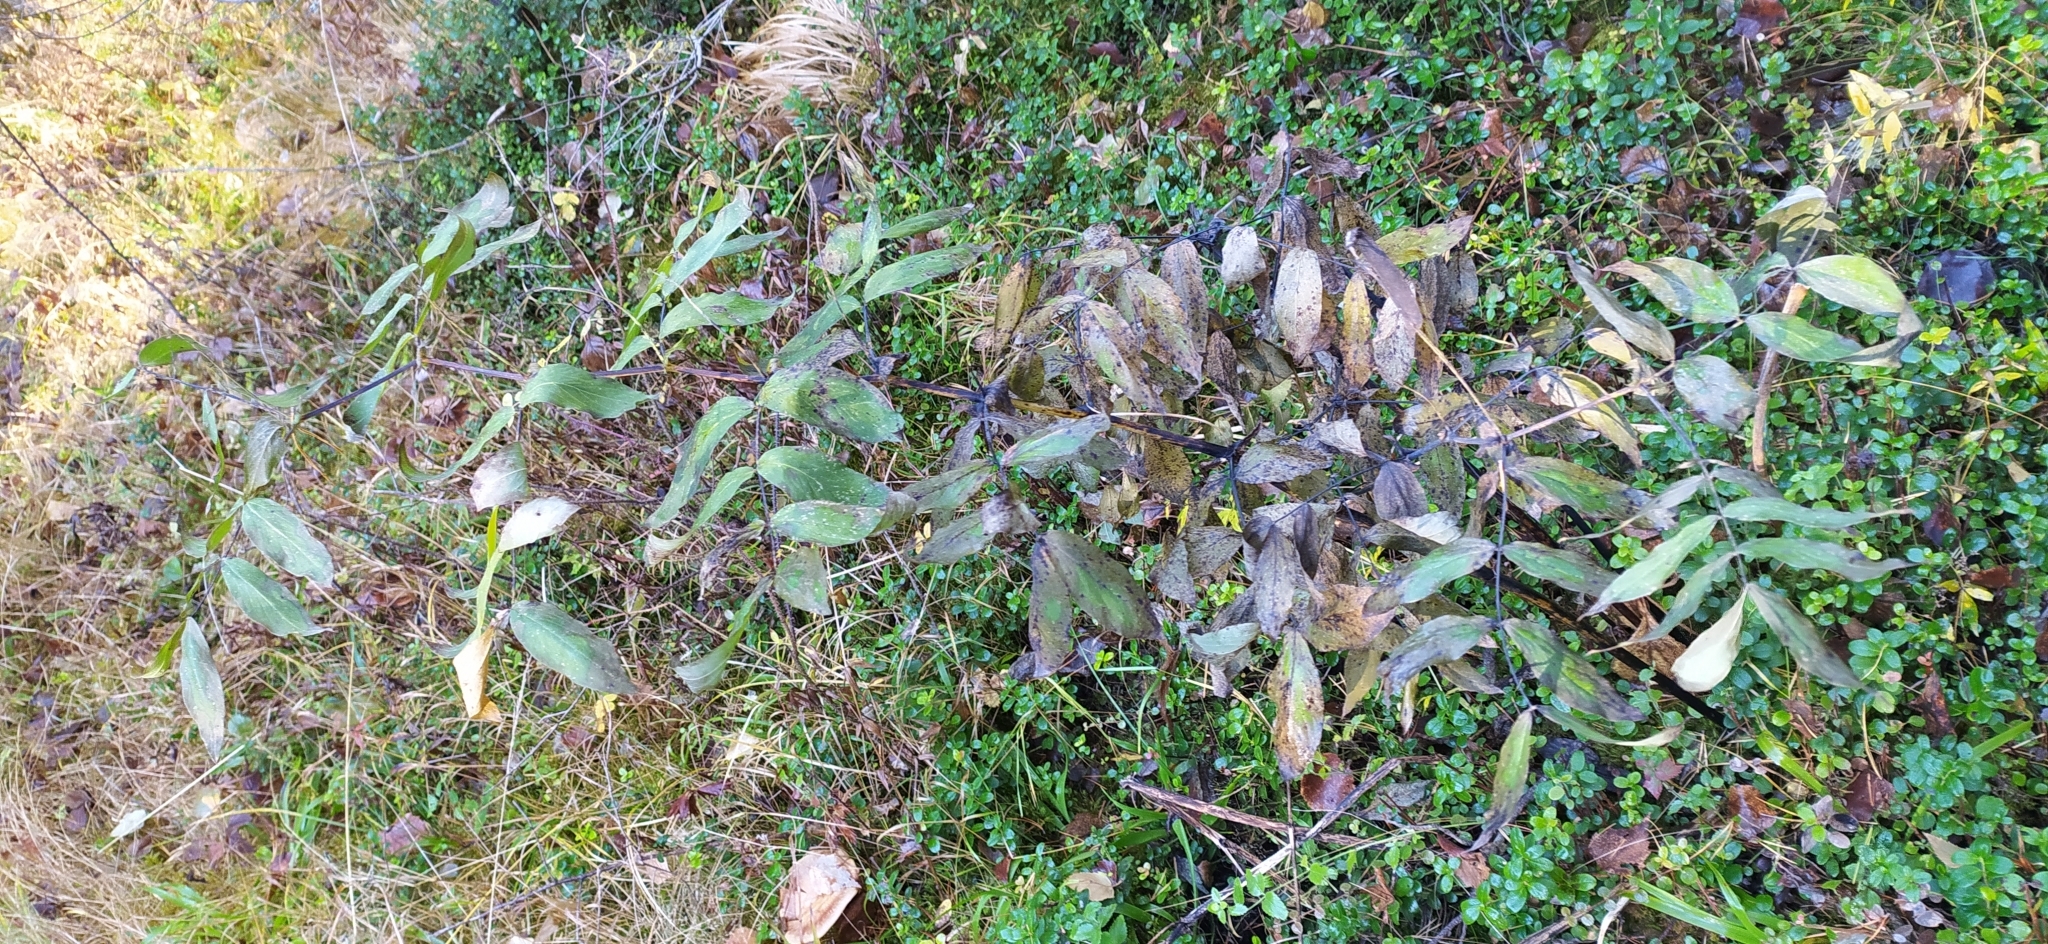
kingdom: Plantae
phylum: Tracheophyta
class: Magnoliopsida
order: Fabales
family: Fabaceae
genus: Lathyrus
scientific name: Lathyrus gmelinii
